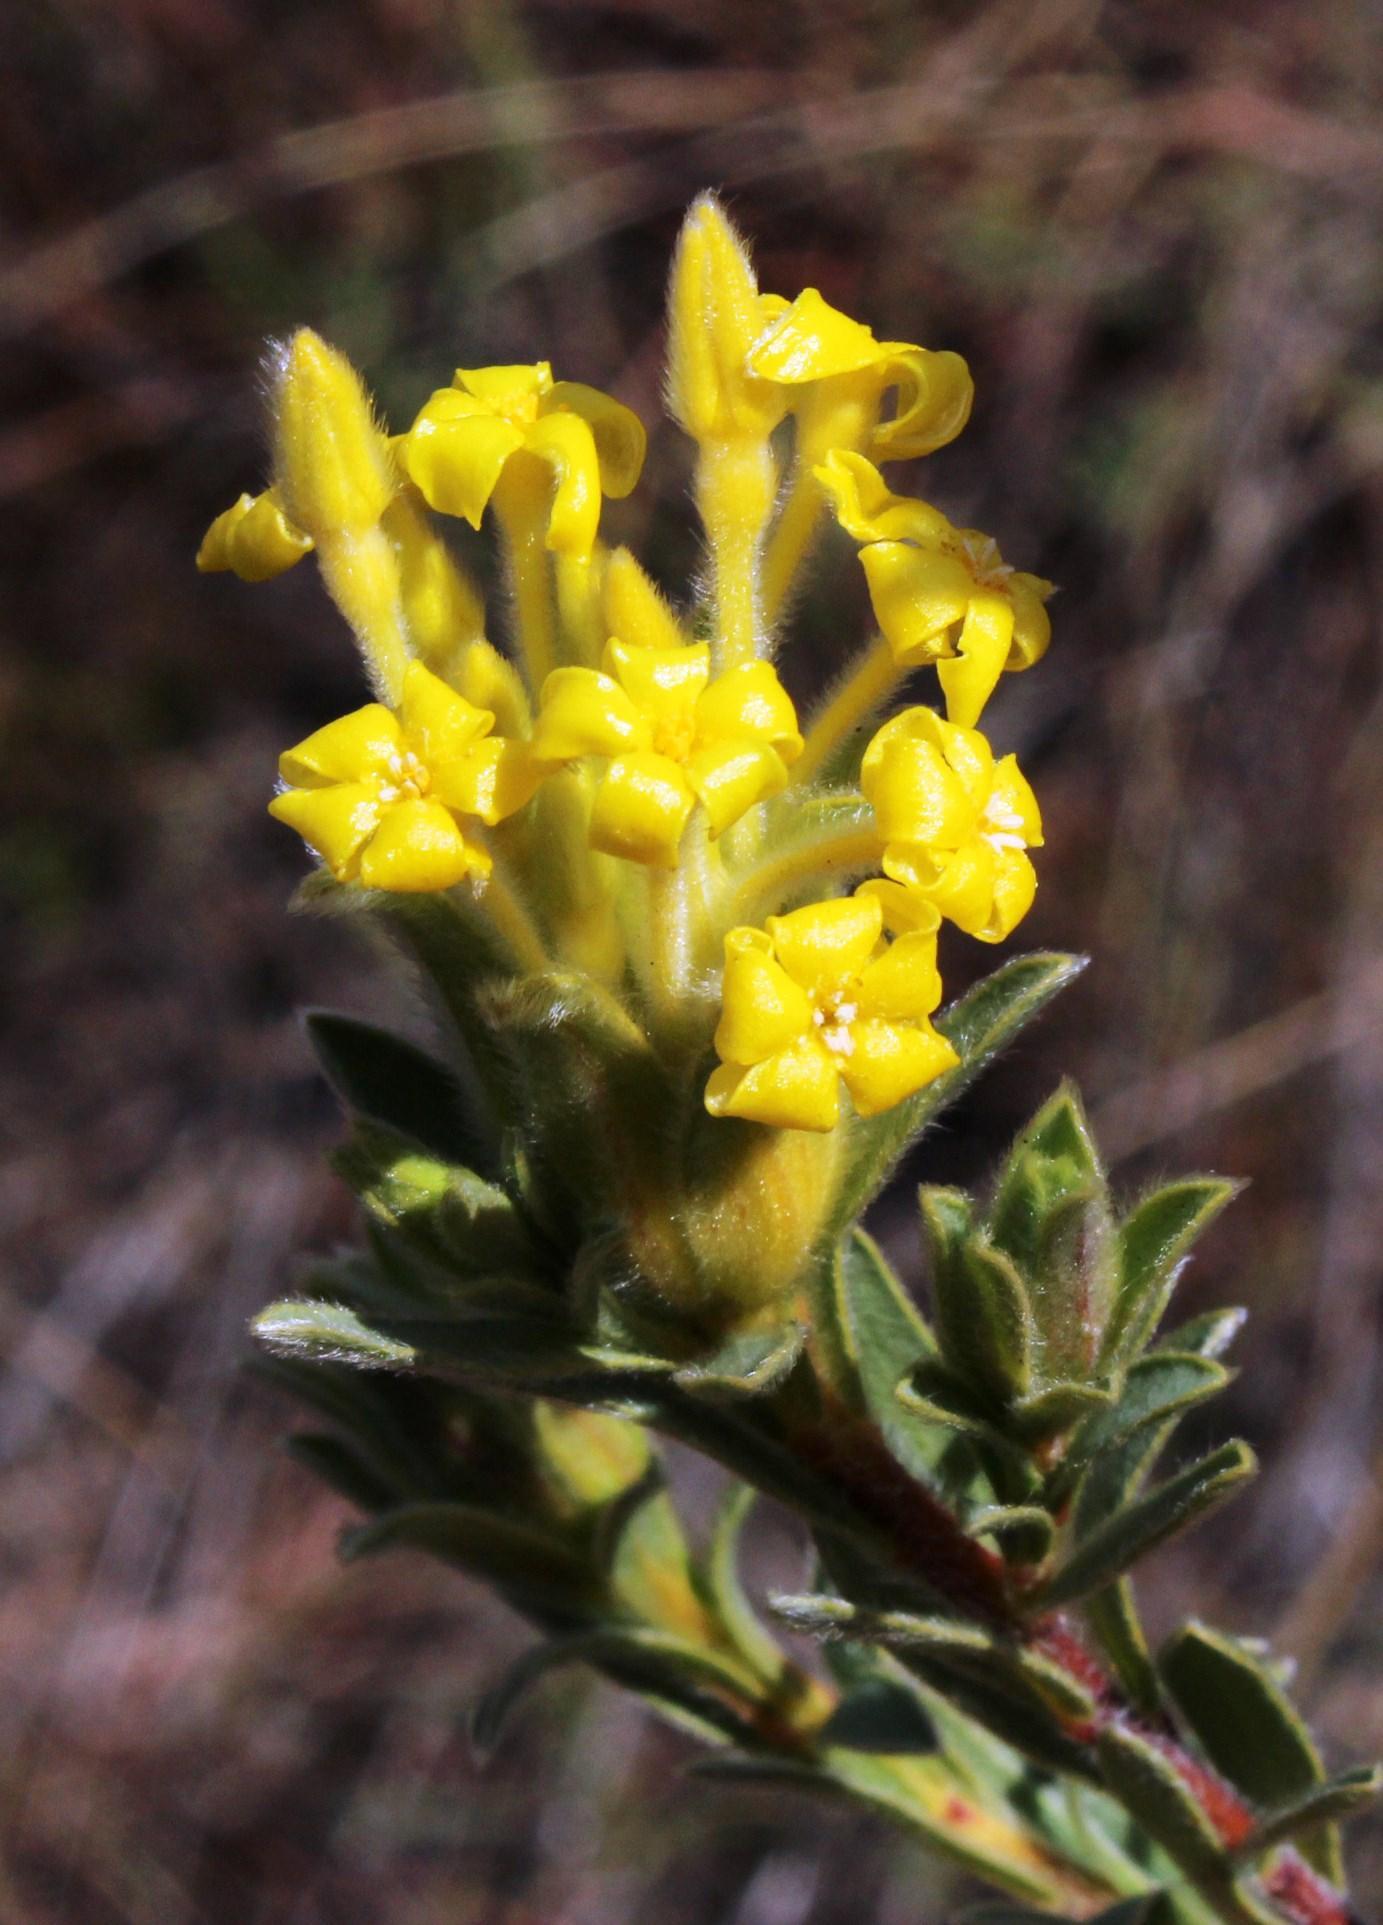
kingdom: Plantae
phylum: Tracheophyta
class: Magnoliopsida
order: Malvales
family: Thymelaeaceae
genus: Gnidia
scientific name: Gnidia burchellii
